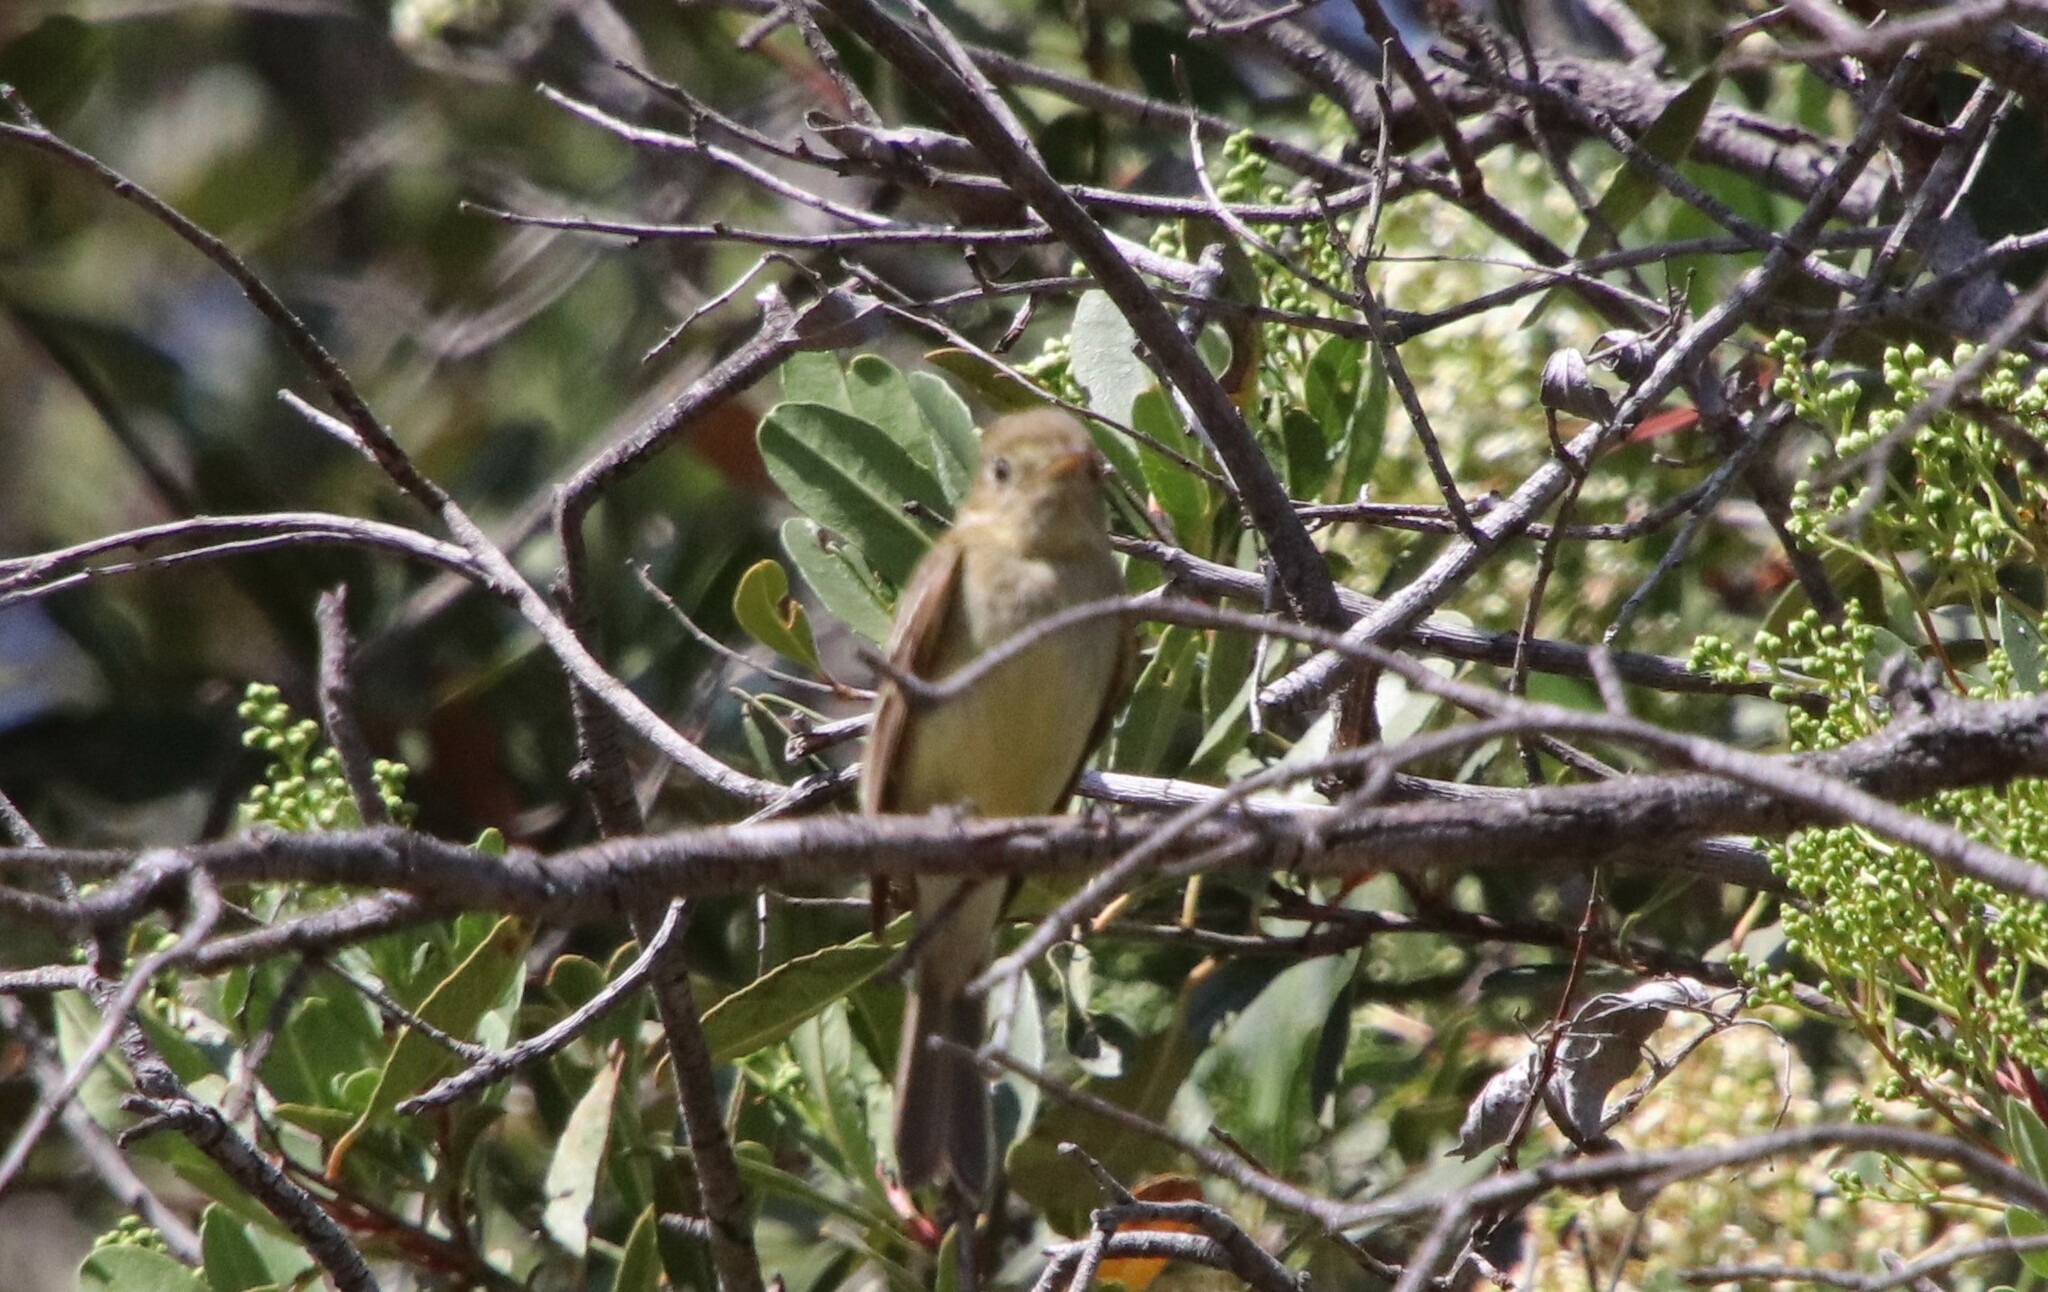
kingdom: Animalia
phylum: Chordata
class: Aves
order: Passeriformes
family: Tyrannidae
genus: Empidonax
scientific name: Empidonax difficilis
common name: Pacific-slope flycatcher
